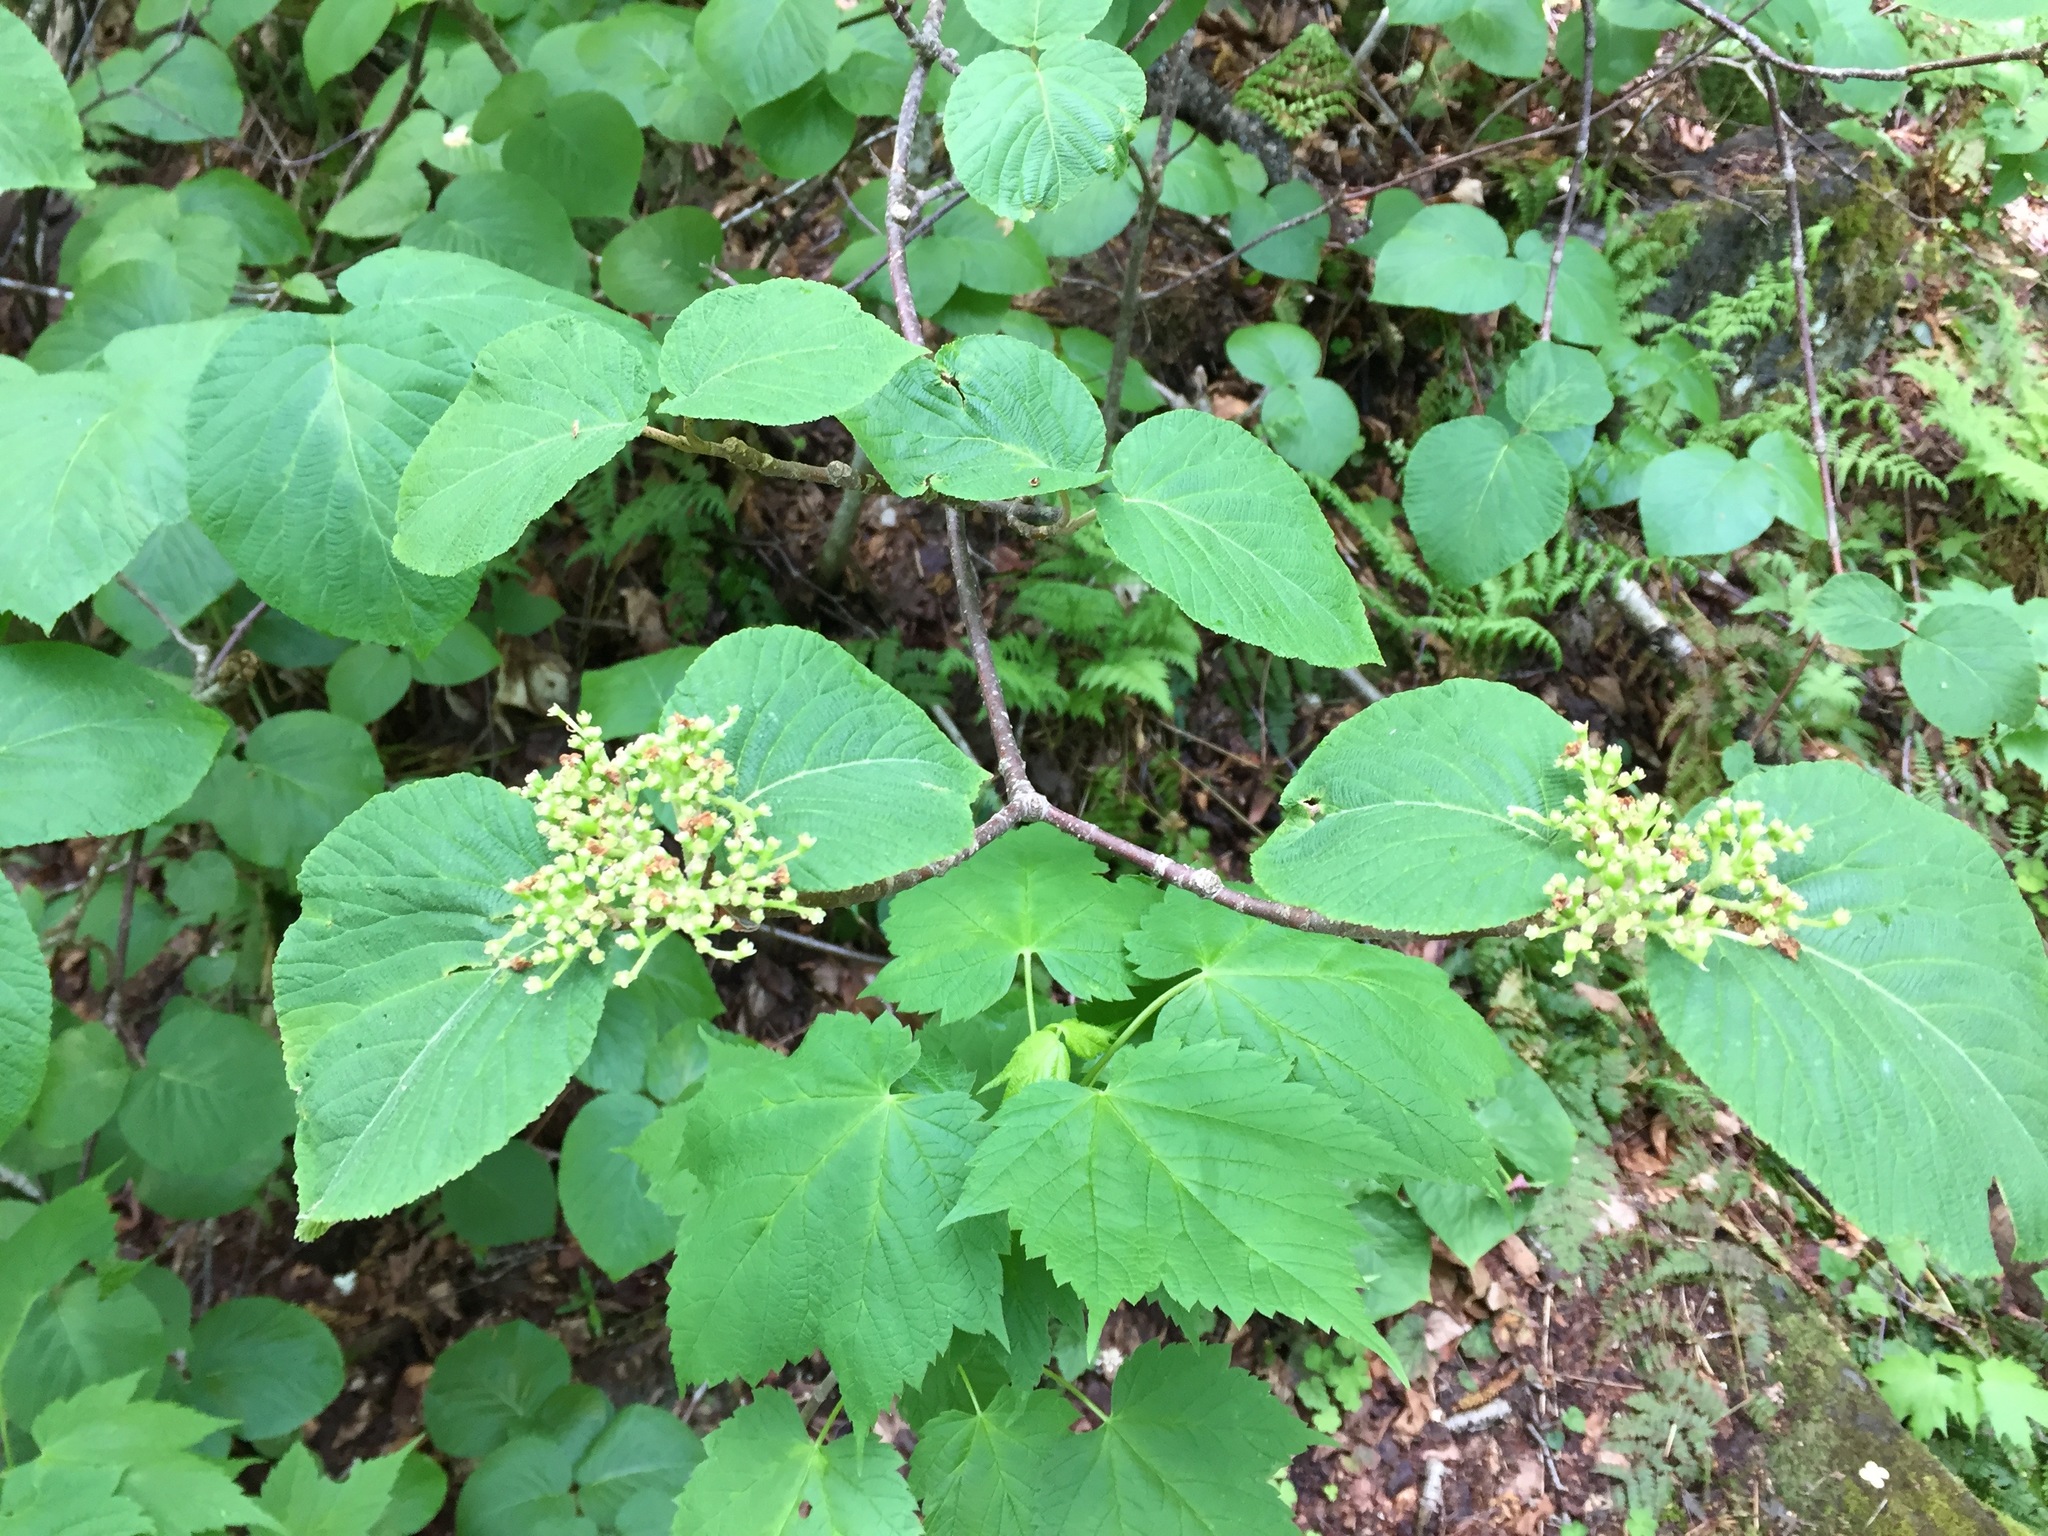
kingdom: Plantae
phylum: Tracheophyta
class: Magnoliopsida
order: Dipsacales
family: Viburnaceae
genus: Viburnum
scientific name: Viburnum lantanoides
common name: Hobblebush
